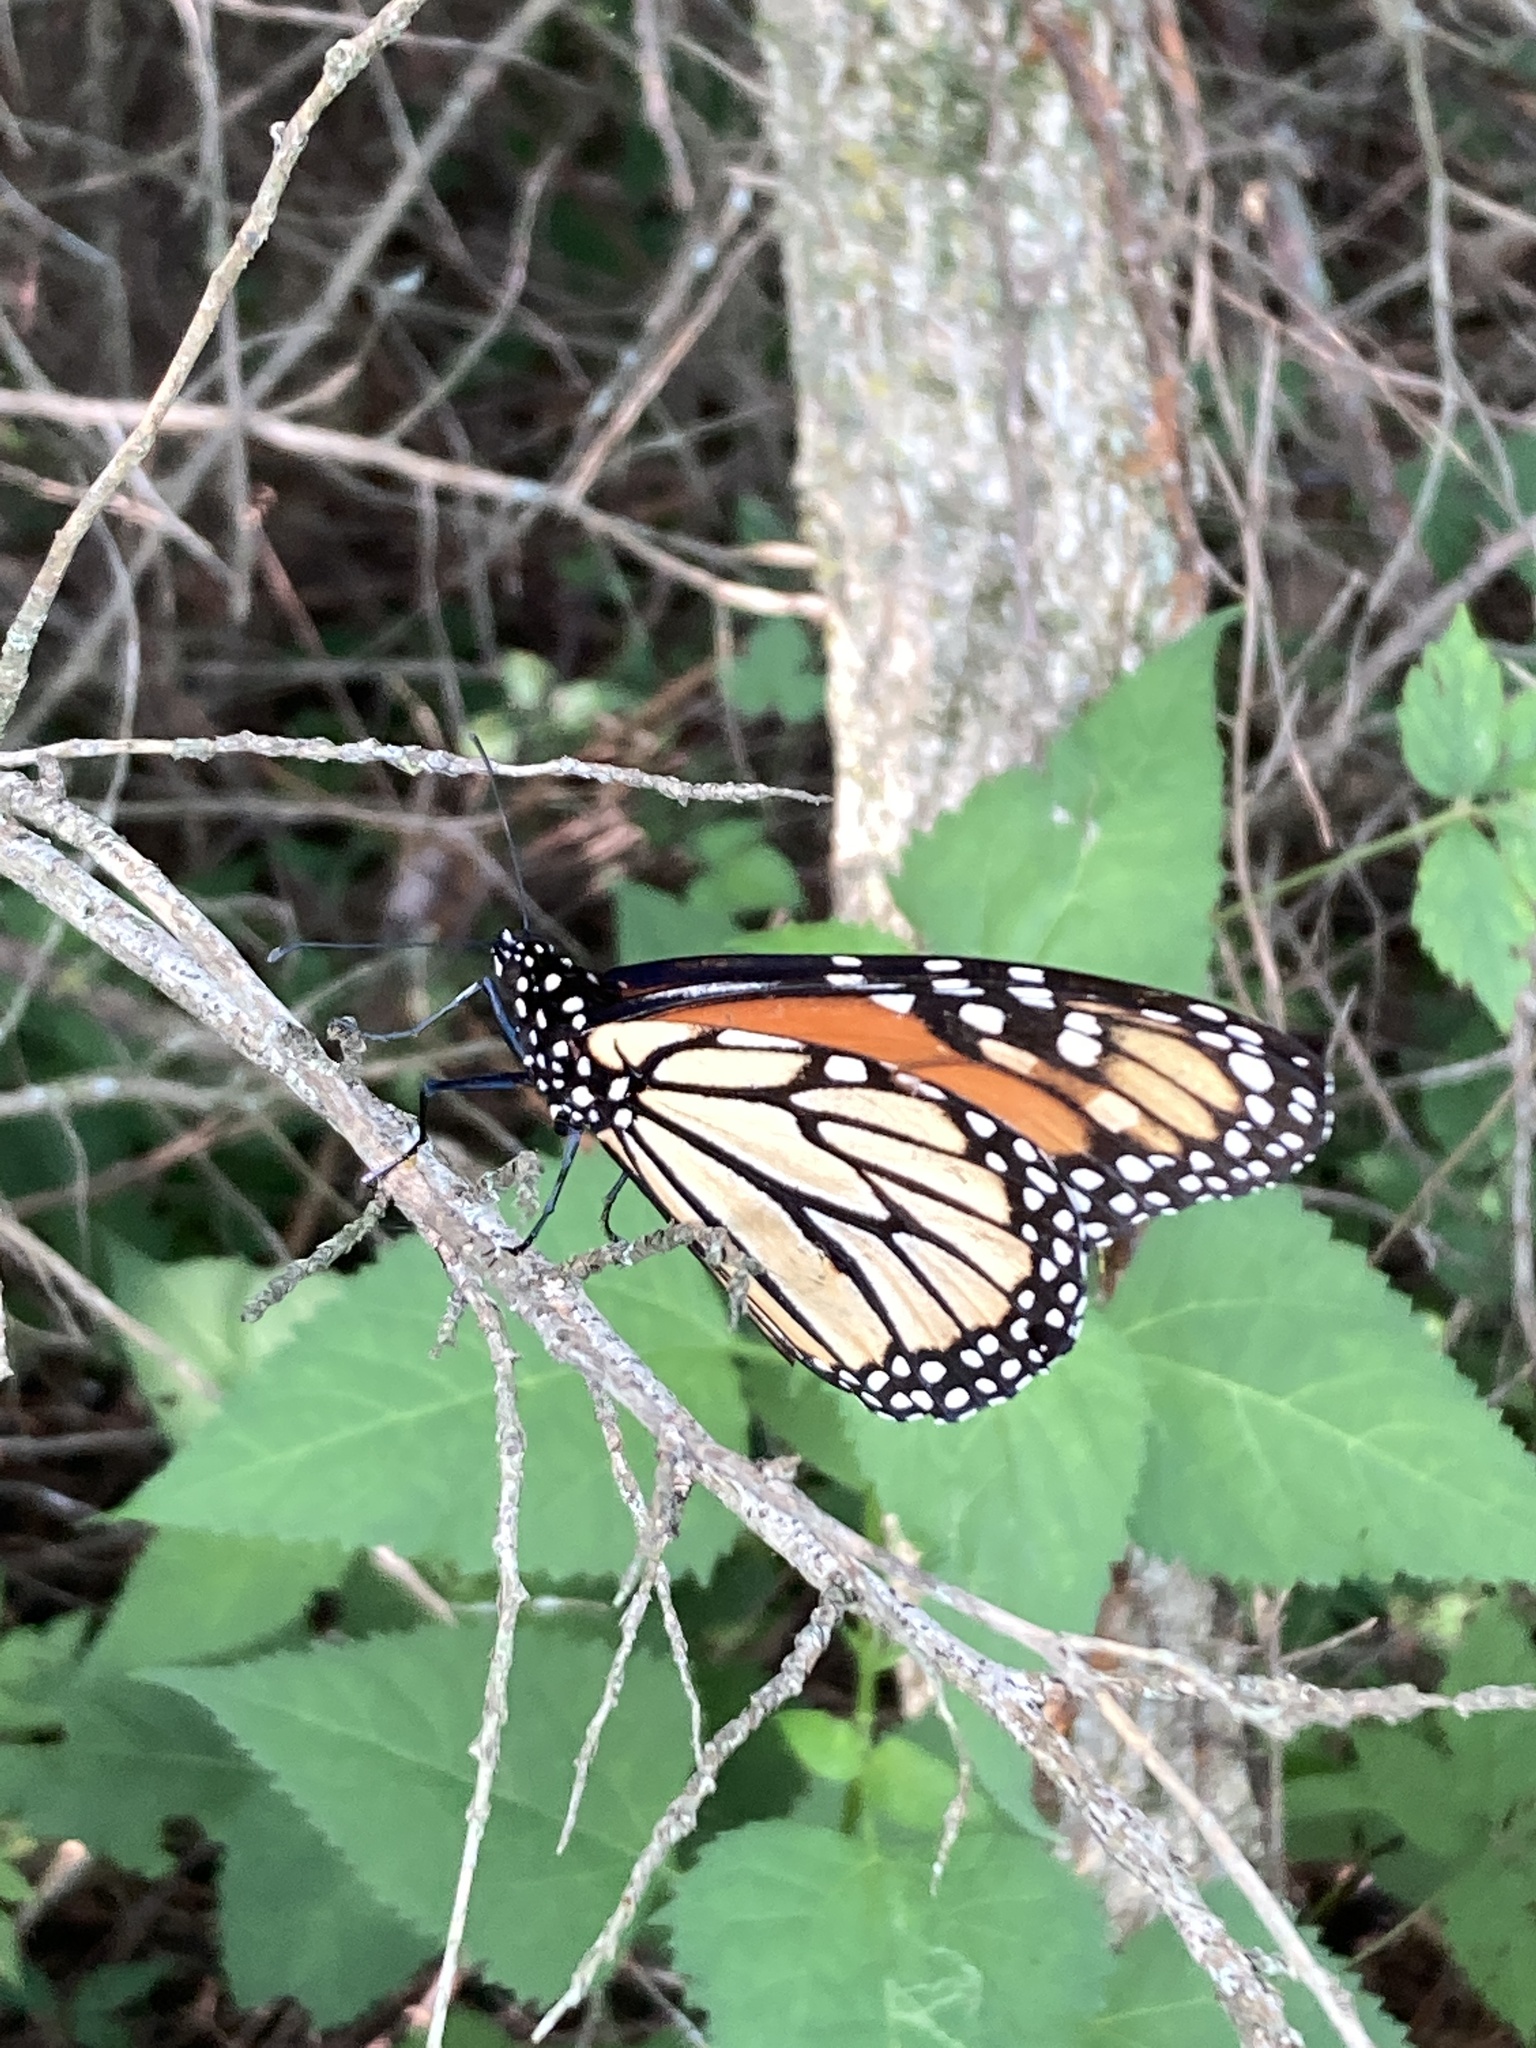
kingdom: Animalia
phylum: Arthropoda
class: Insecta
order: Lepidoptera
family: Nymphalidae
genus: Danaus
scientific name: Danaus plexippus
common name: Monarch
